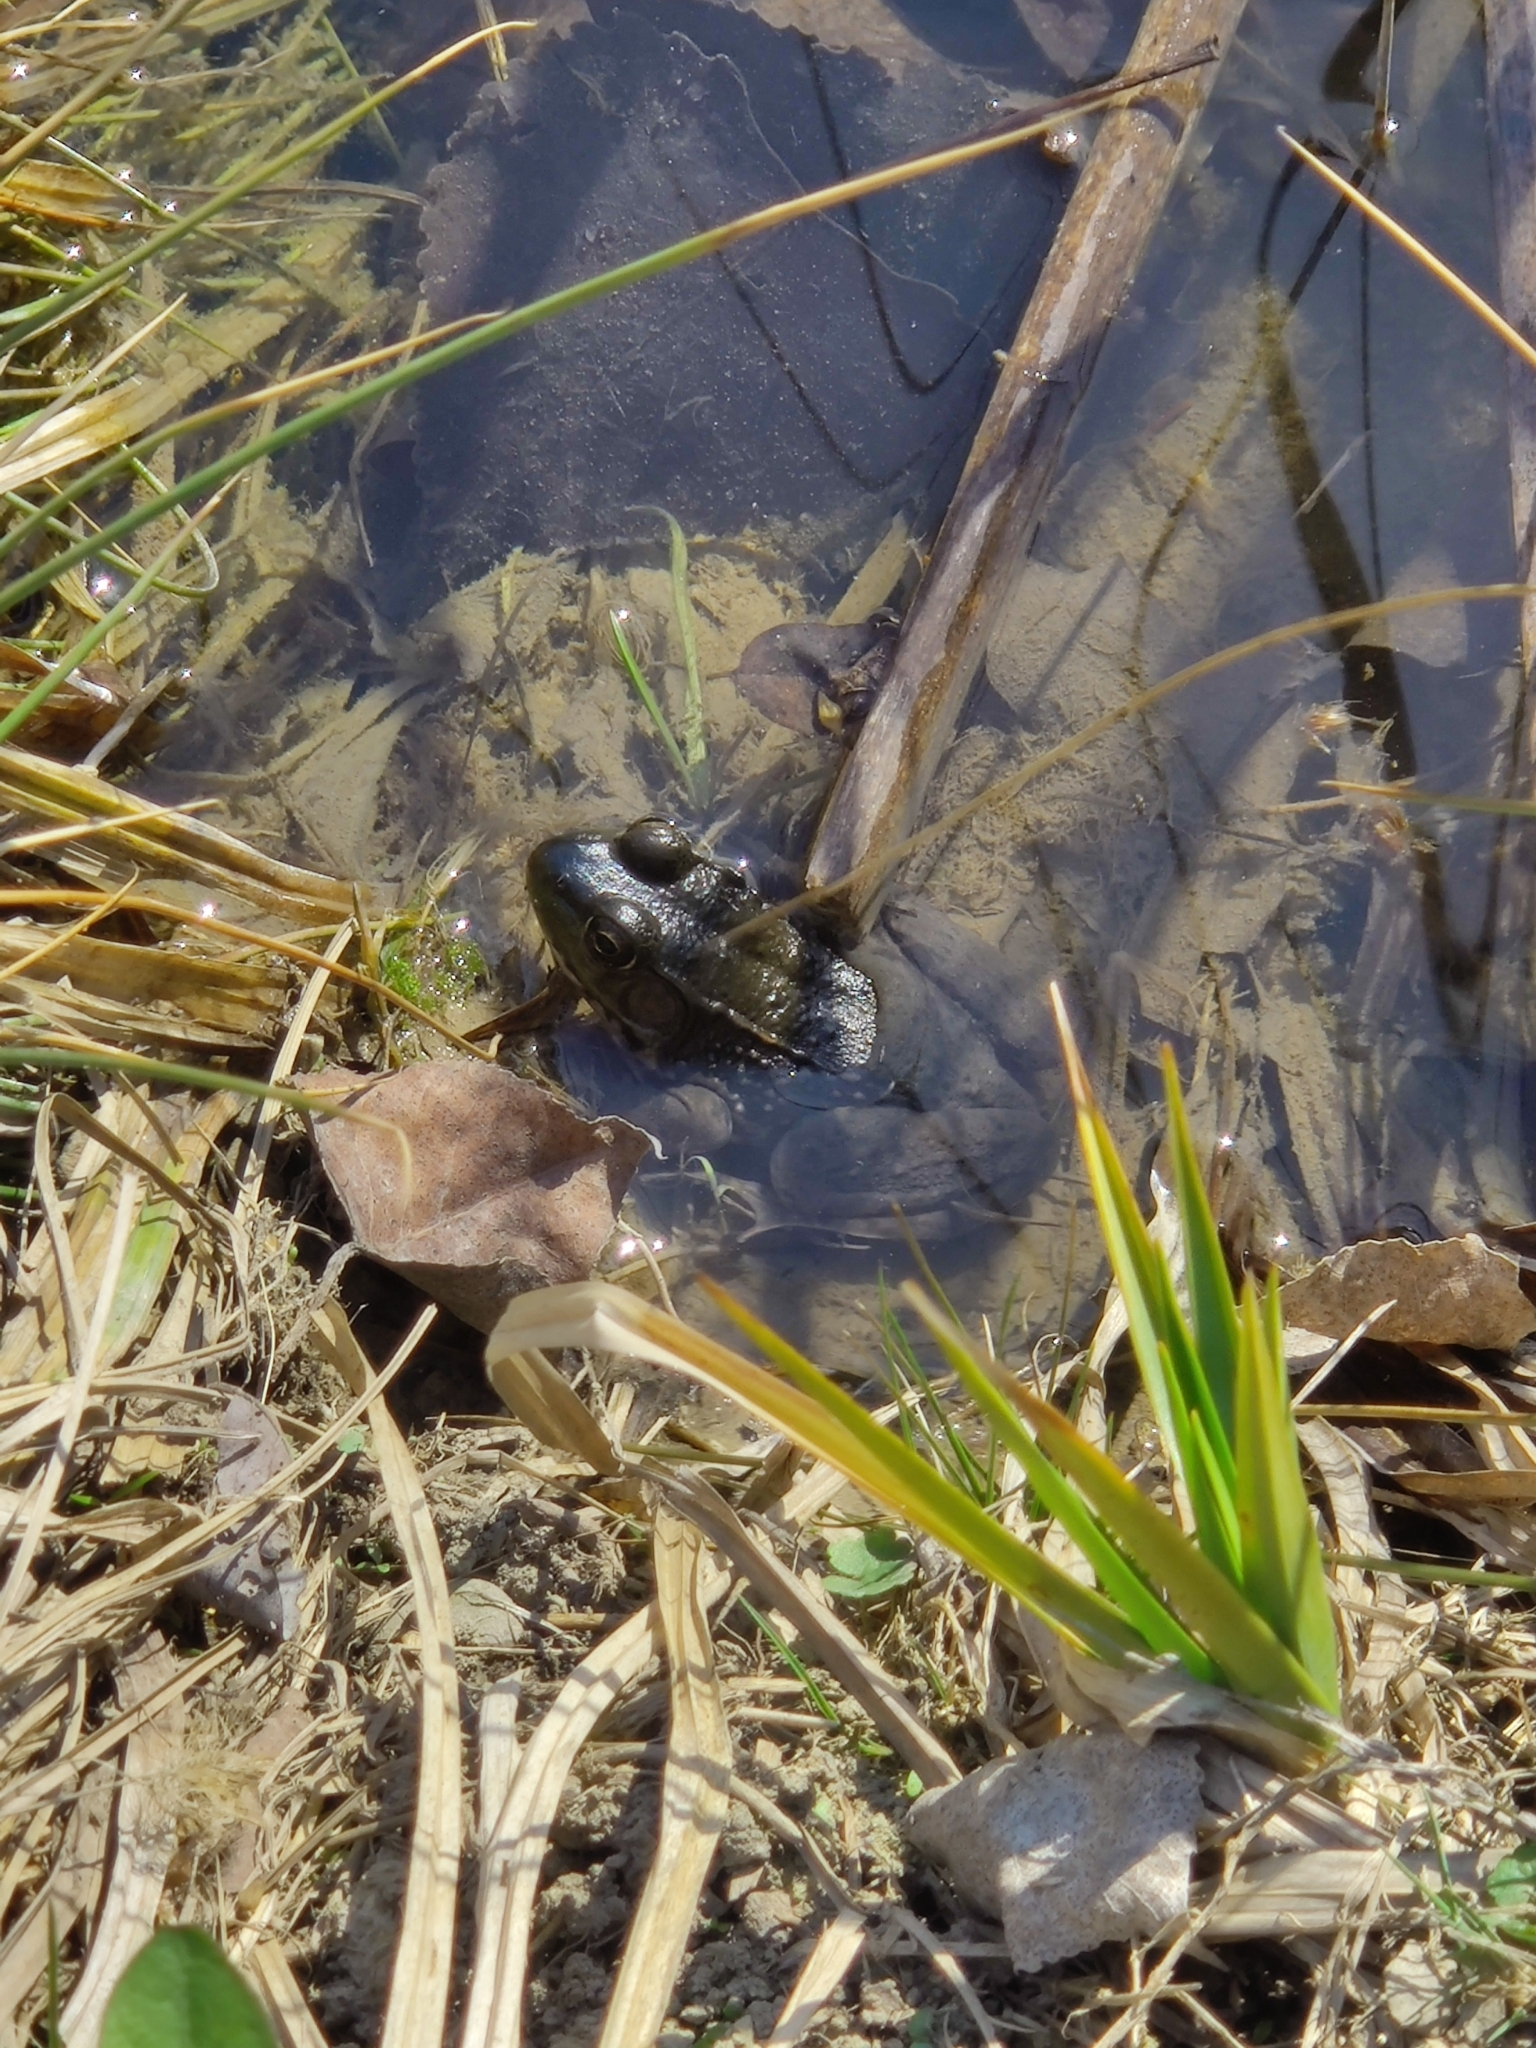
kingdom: Animalia
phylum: Chordata
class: Amphibia
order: Anura
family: Ranidae
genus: Lithobates
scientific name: Lithobates clamitans
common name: Green frog
